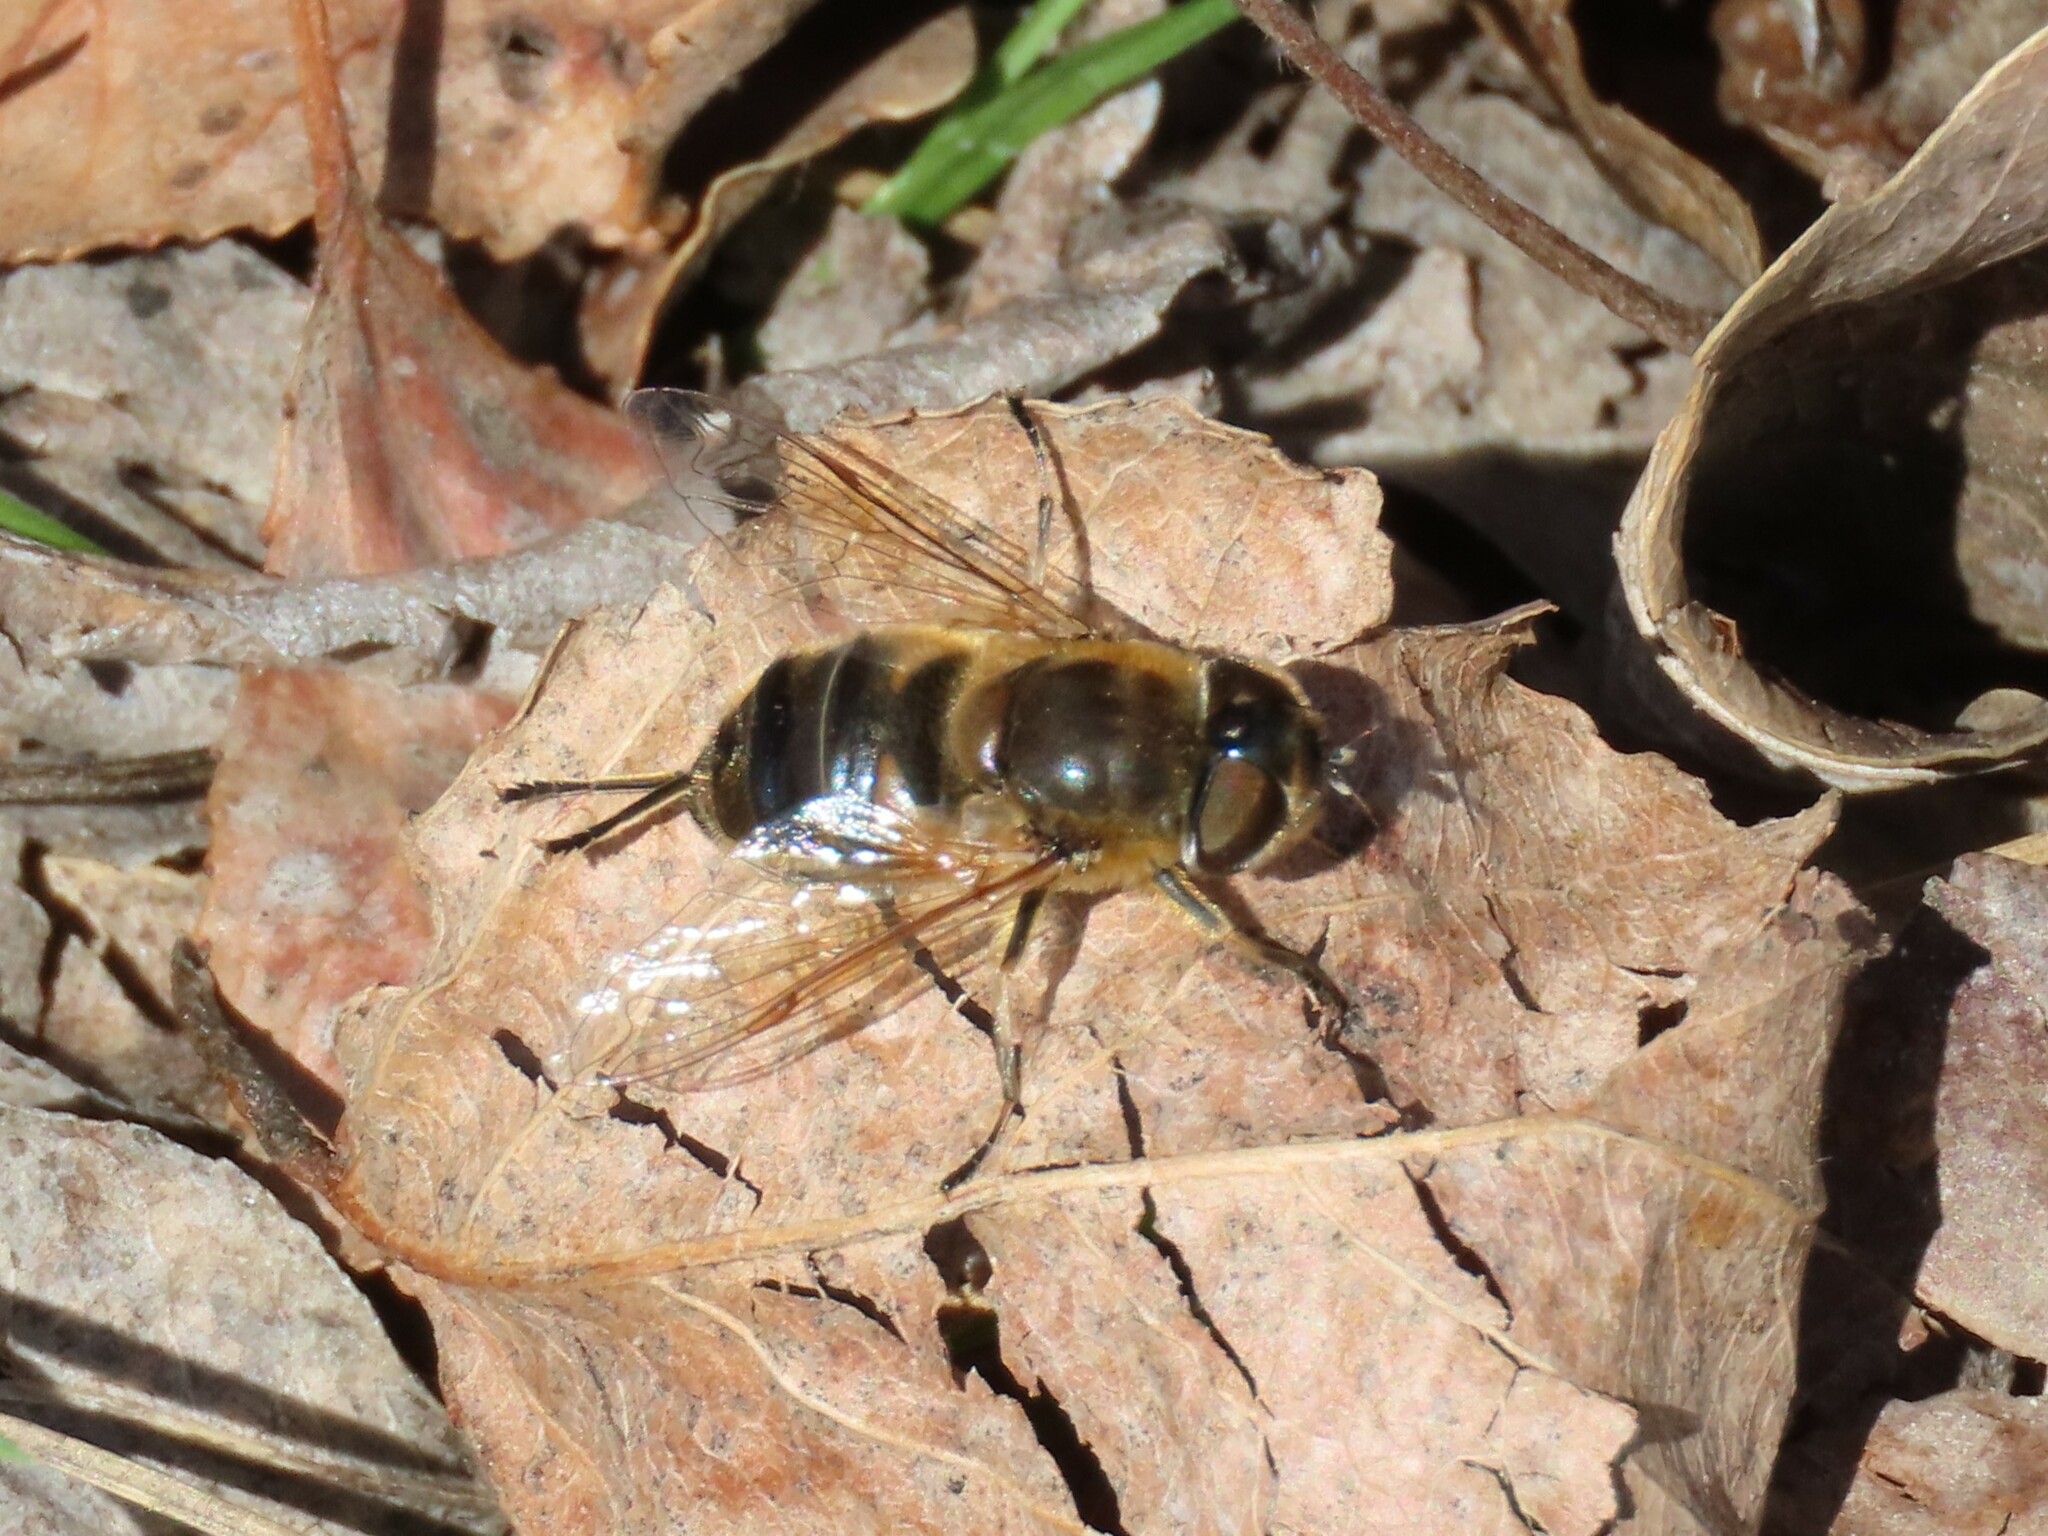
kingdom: Animalia
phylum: Arthropoda
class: Insecta
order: Diptera
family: Syrphidae
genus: Eristalis
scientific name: Eristalis pertinax
